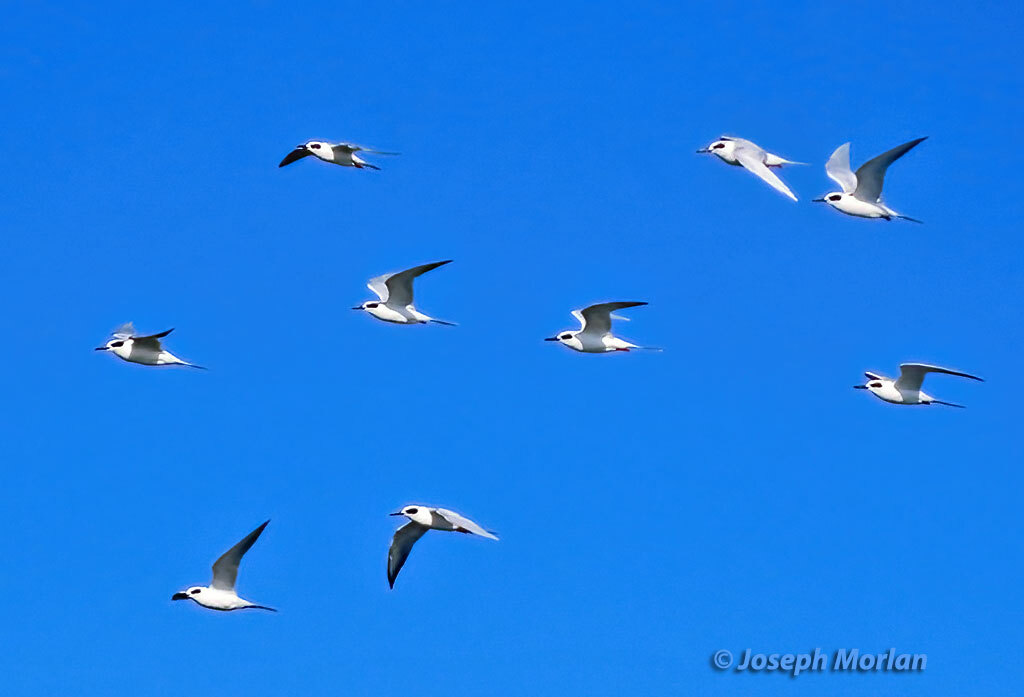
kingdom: Animalia
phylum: Chordata
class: Aves
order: Charadriiformes
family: Laridae
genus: Sterna
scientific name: Sterna forsteri
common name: Forster's tern
